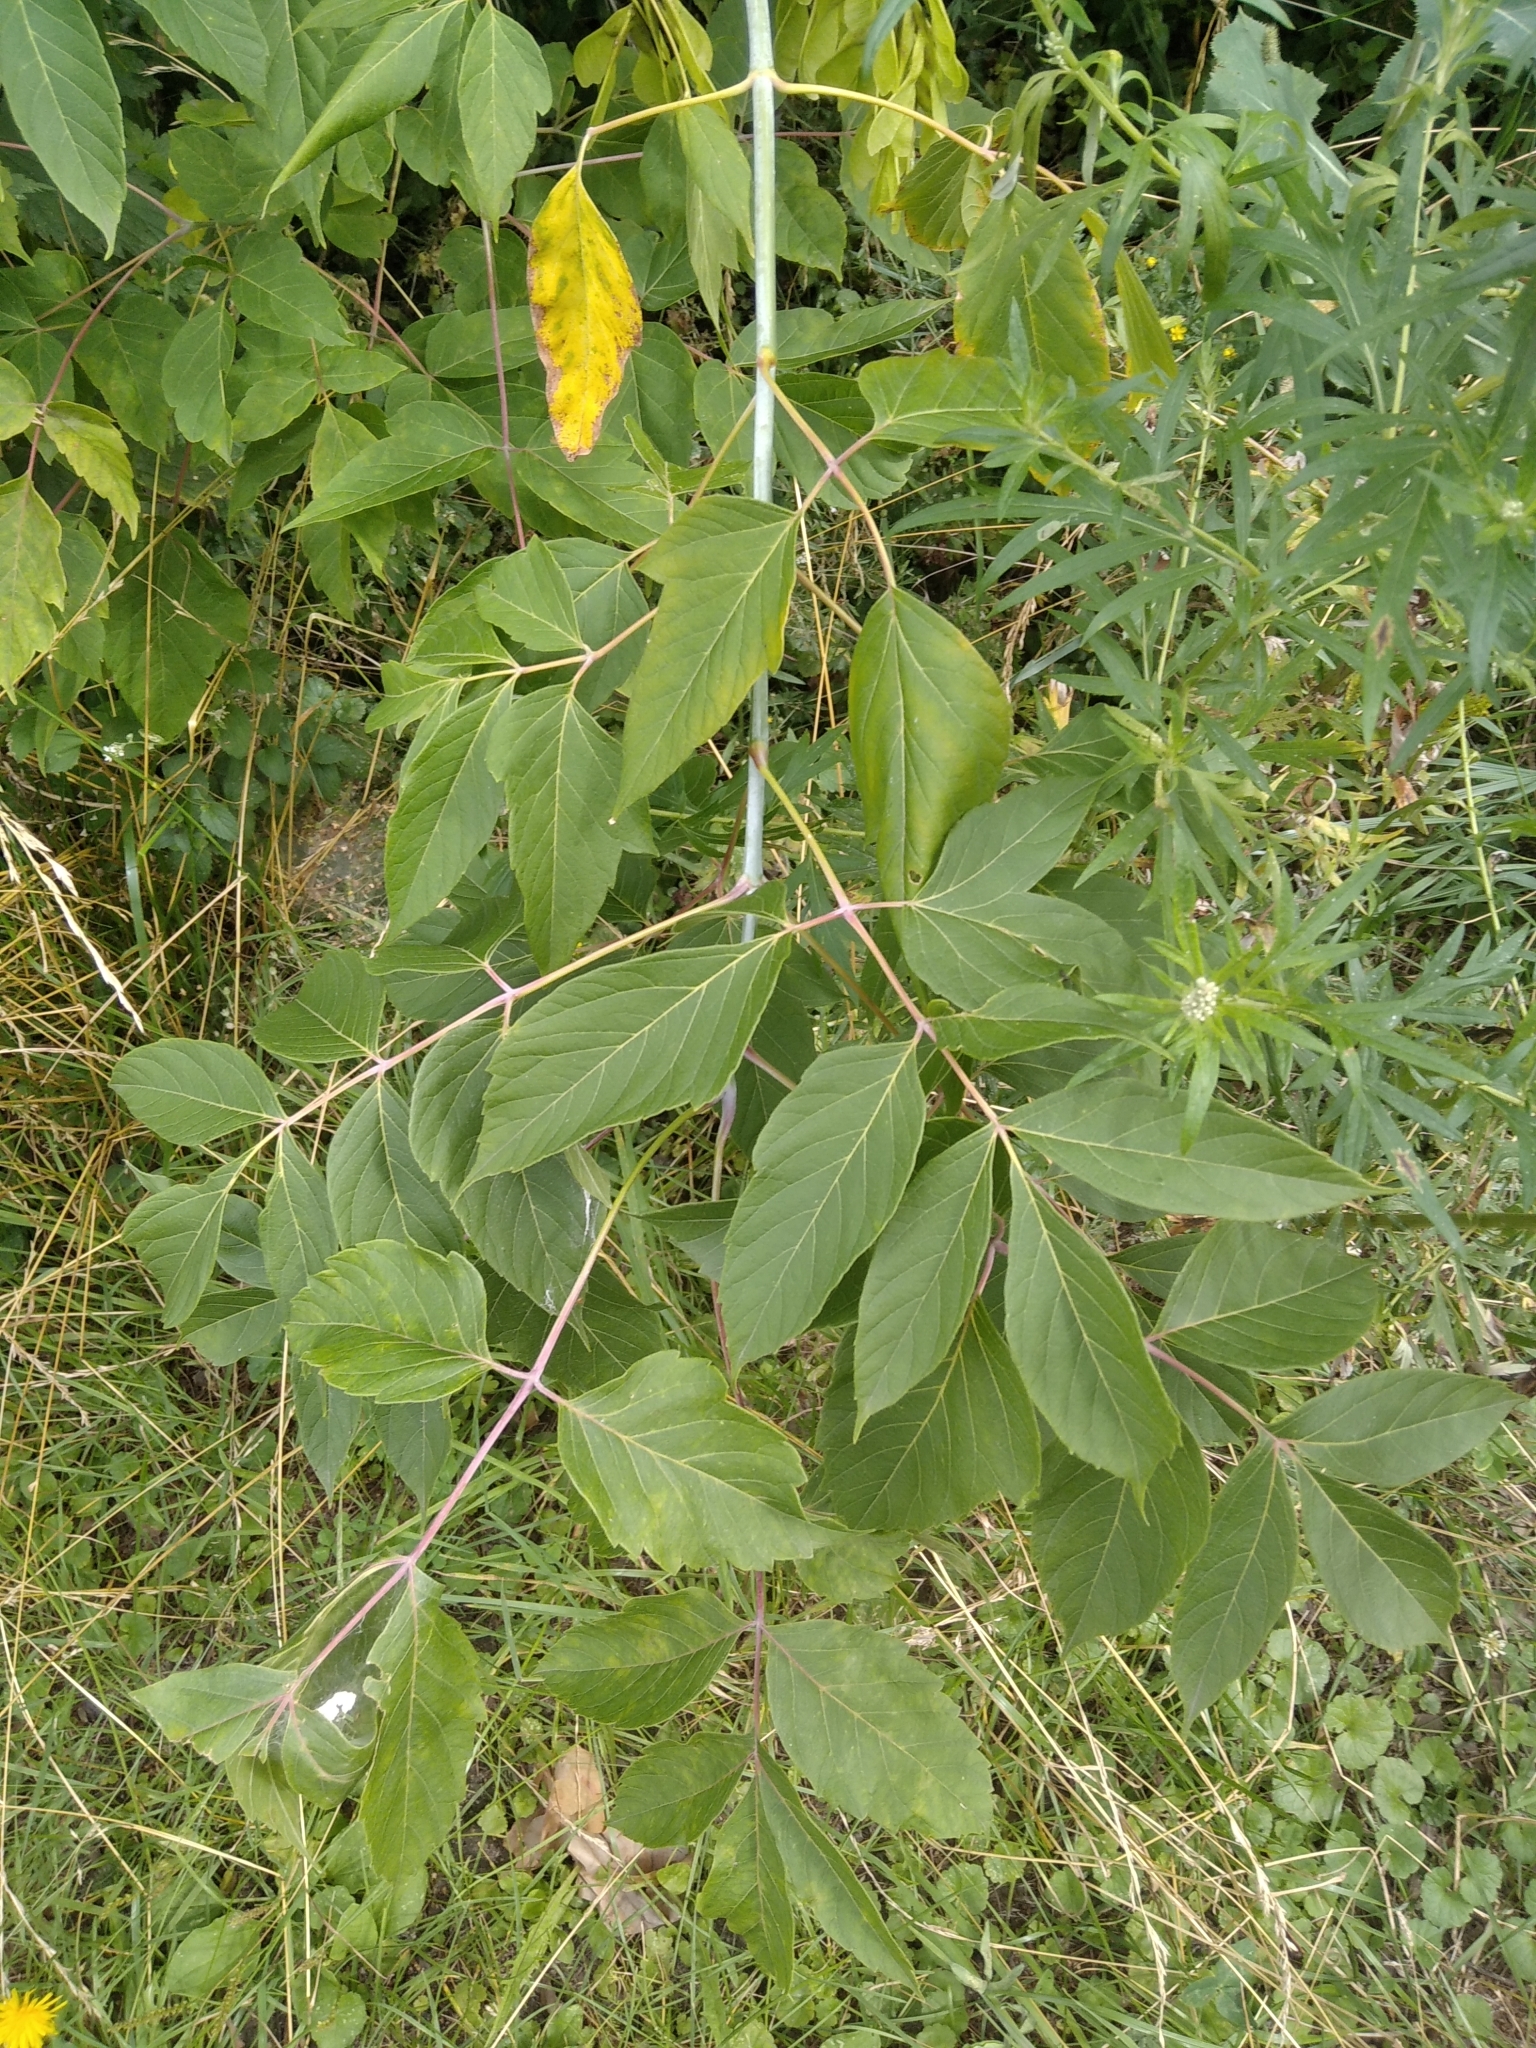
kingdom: Plantae
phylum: Tracheophyta
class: Magnoliopsida
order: Sapindales
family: Sapindaceae
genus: Acer
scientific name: Acer negundo
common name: Ashleaf maple
